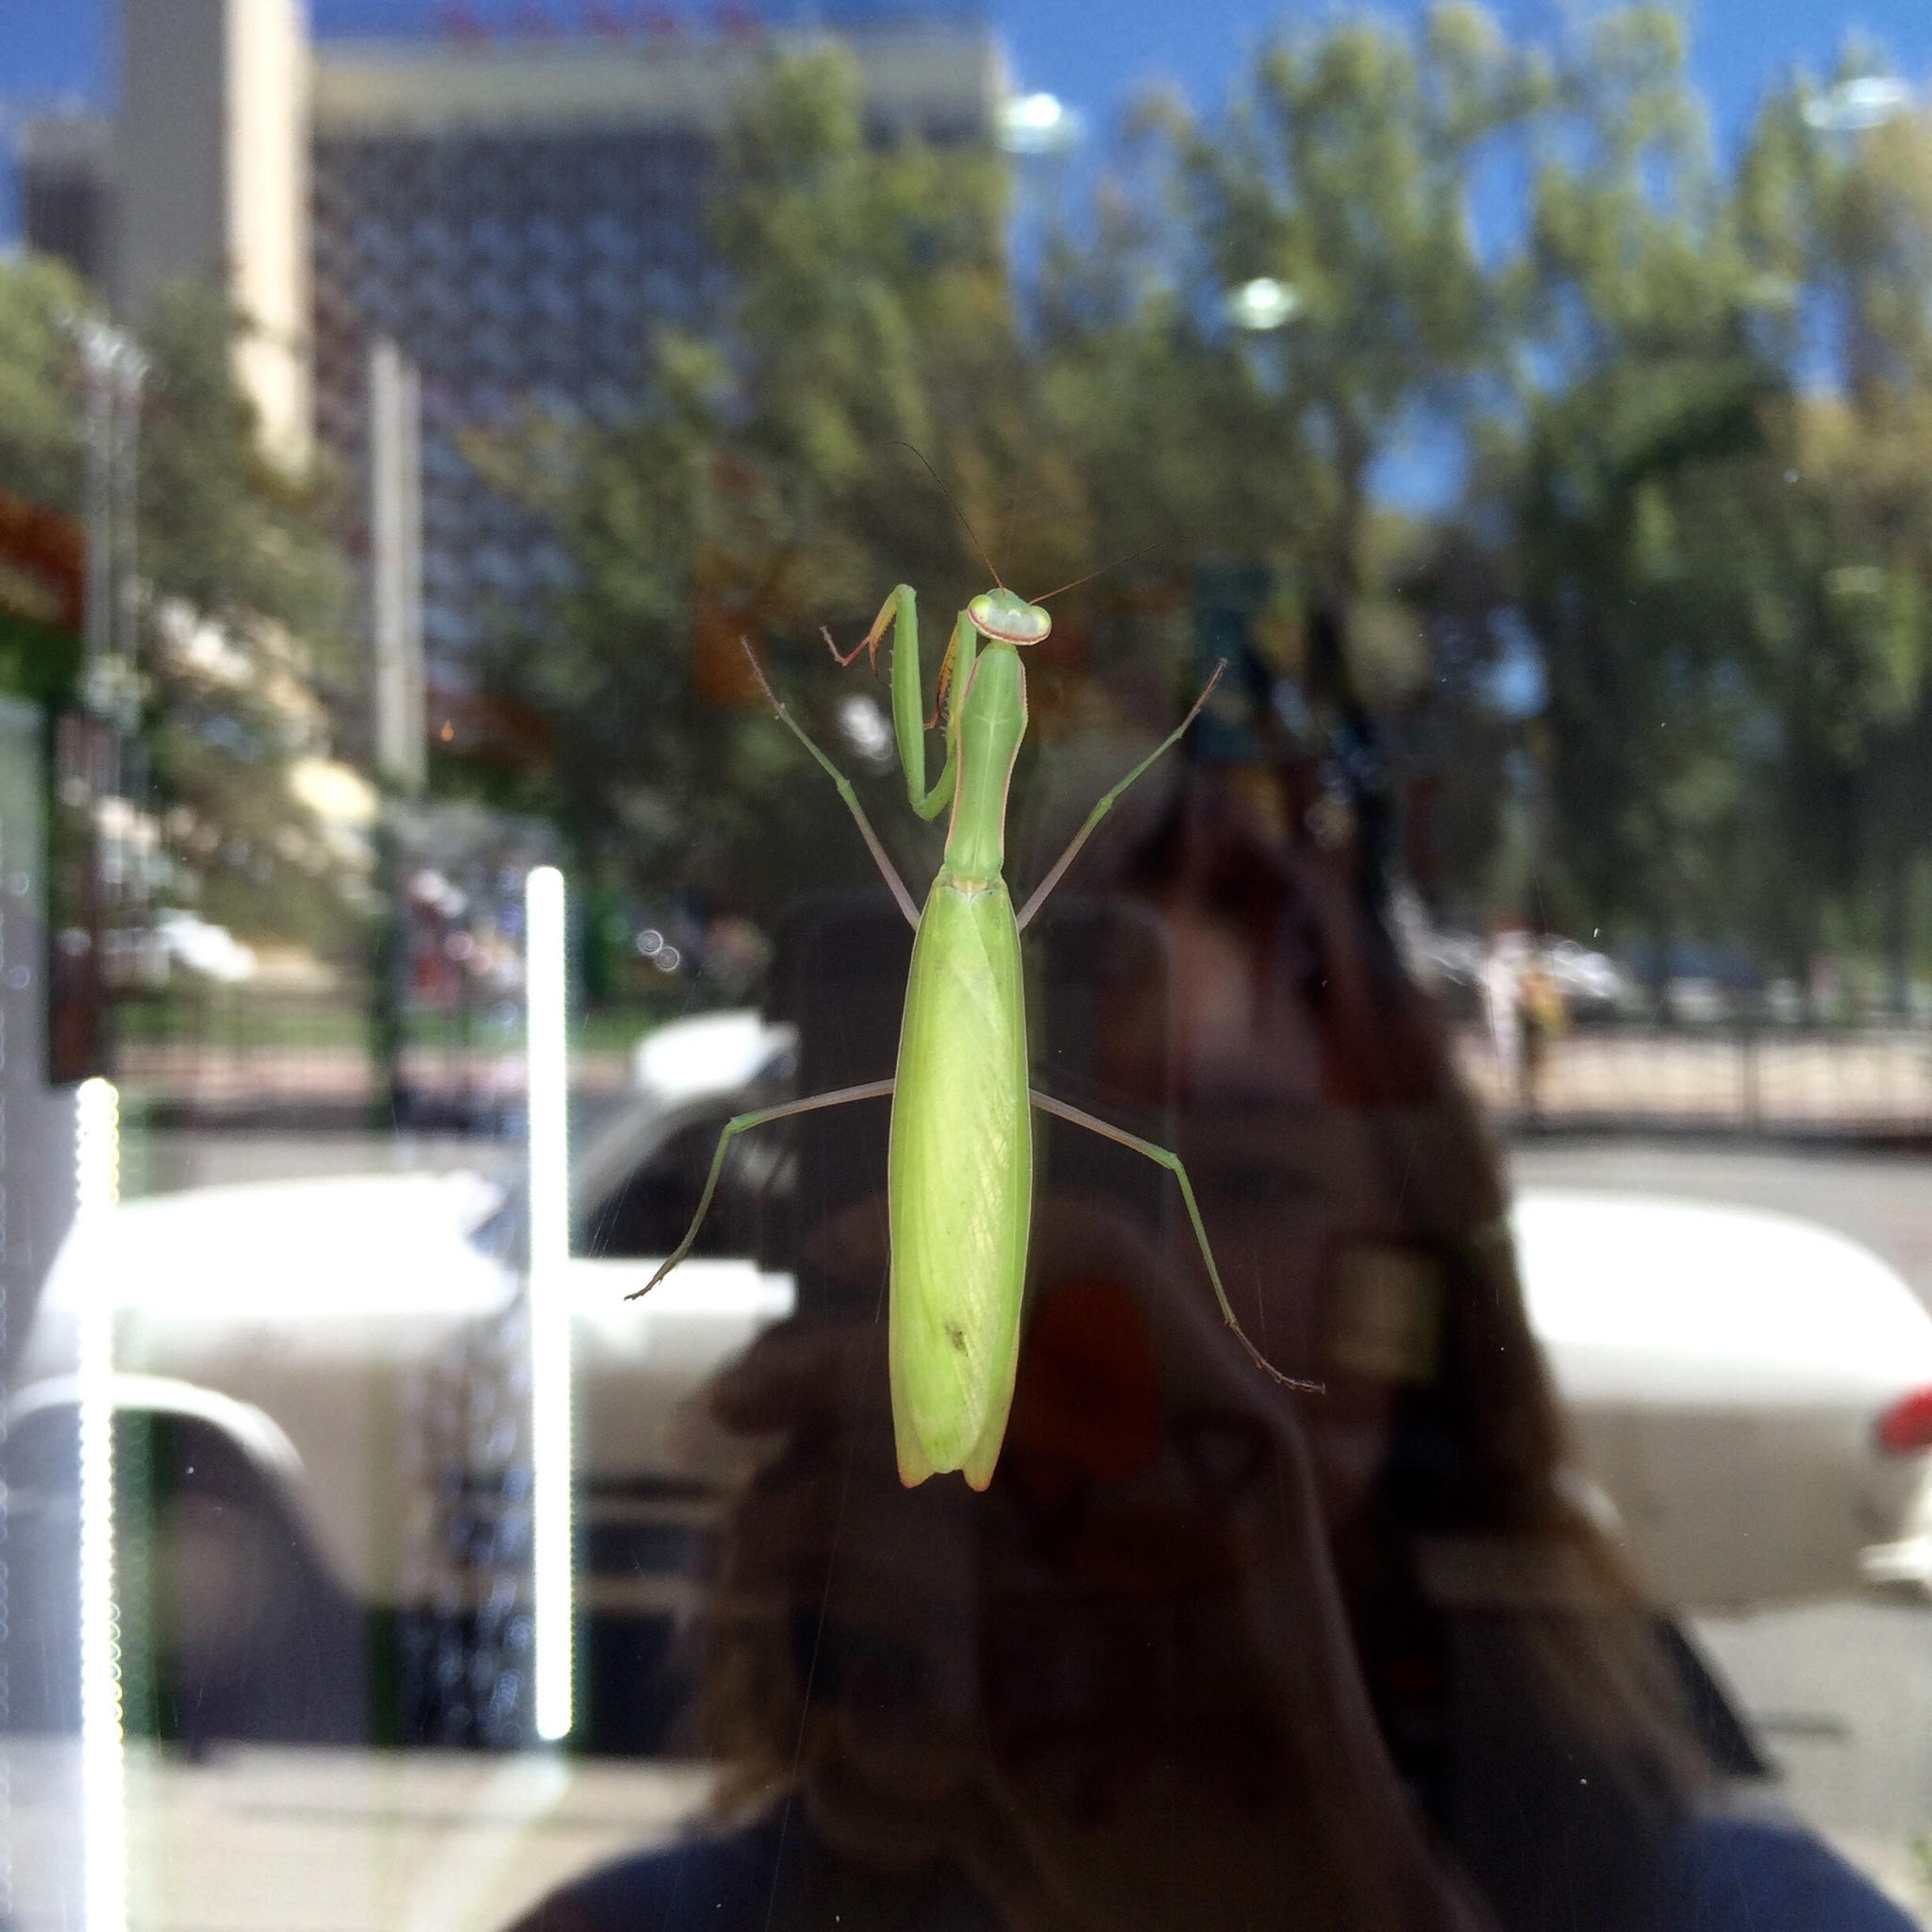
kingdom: Animalia
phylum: Arthropoda
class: Insecta
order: Mantodea
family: Mantidae
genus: Mantis
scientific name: Mantis religiosa
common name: Praying mantis
